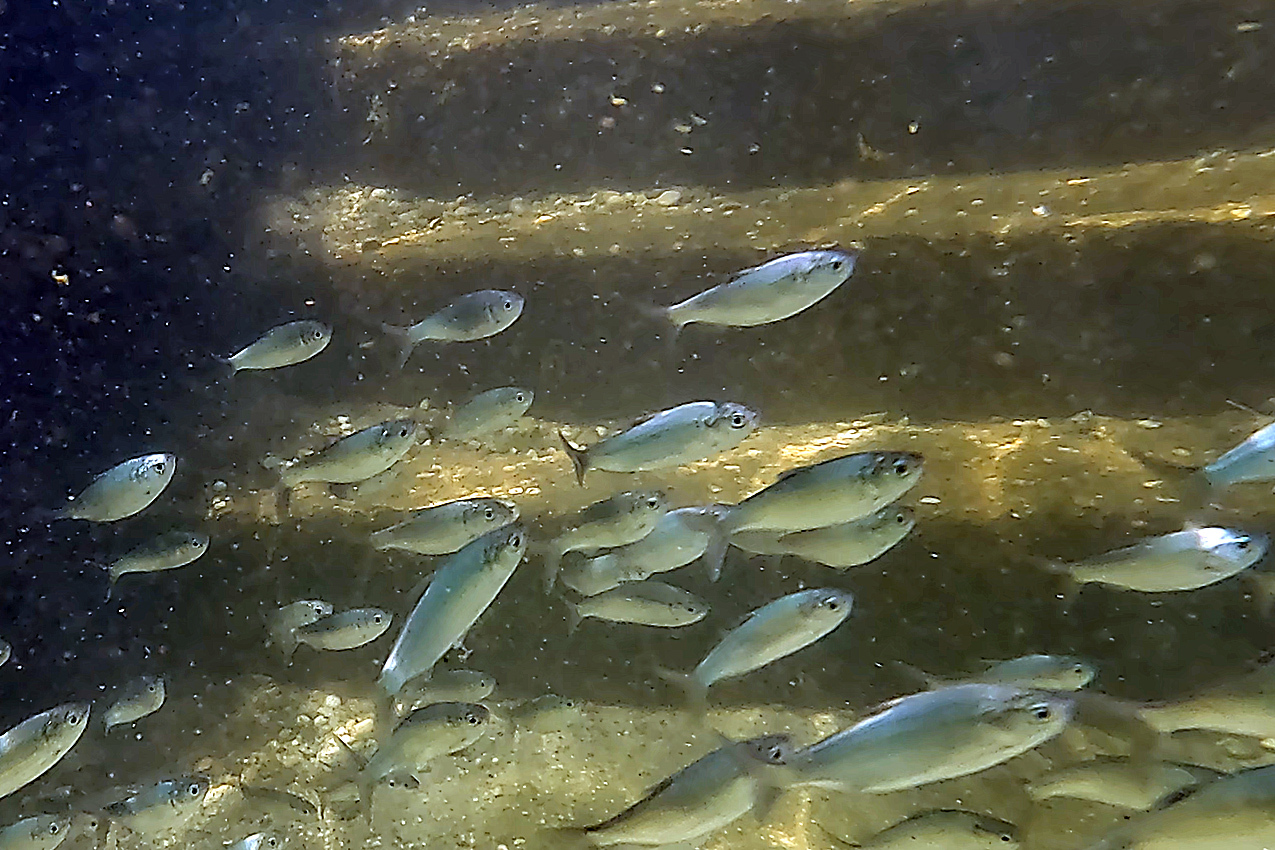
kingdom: Animalia
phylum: Chordata
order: Clupeiformes
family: Clupeidae
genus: Nematalosa
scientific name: Nematalosa erebi
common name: Australian river gizzard shad
